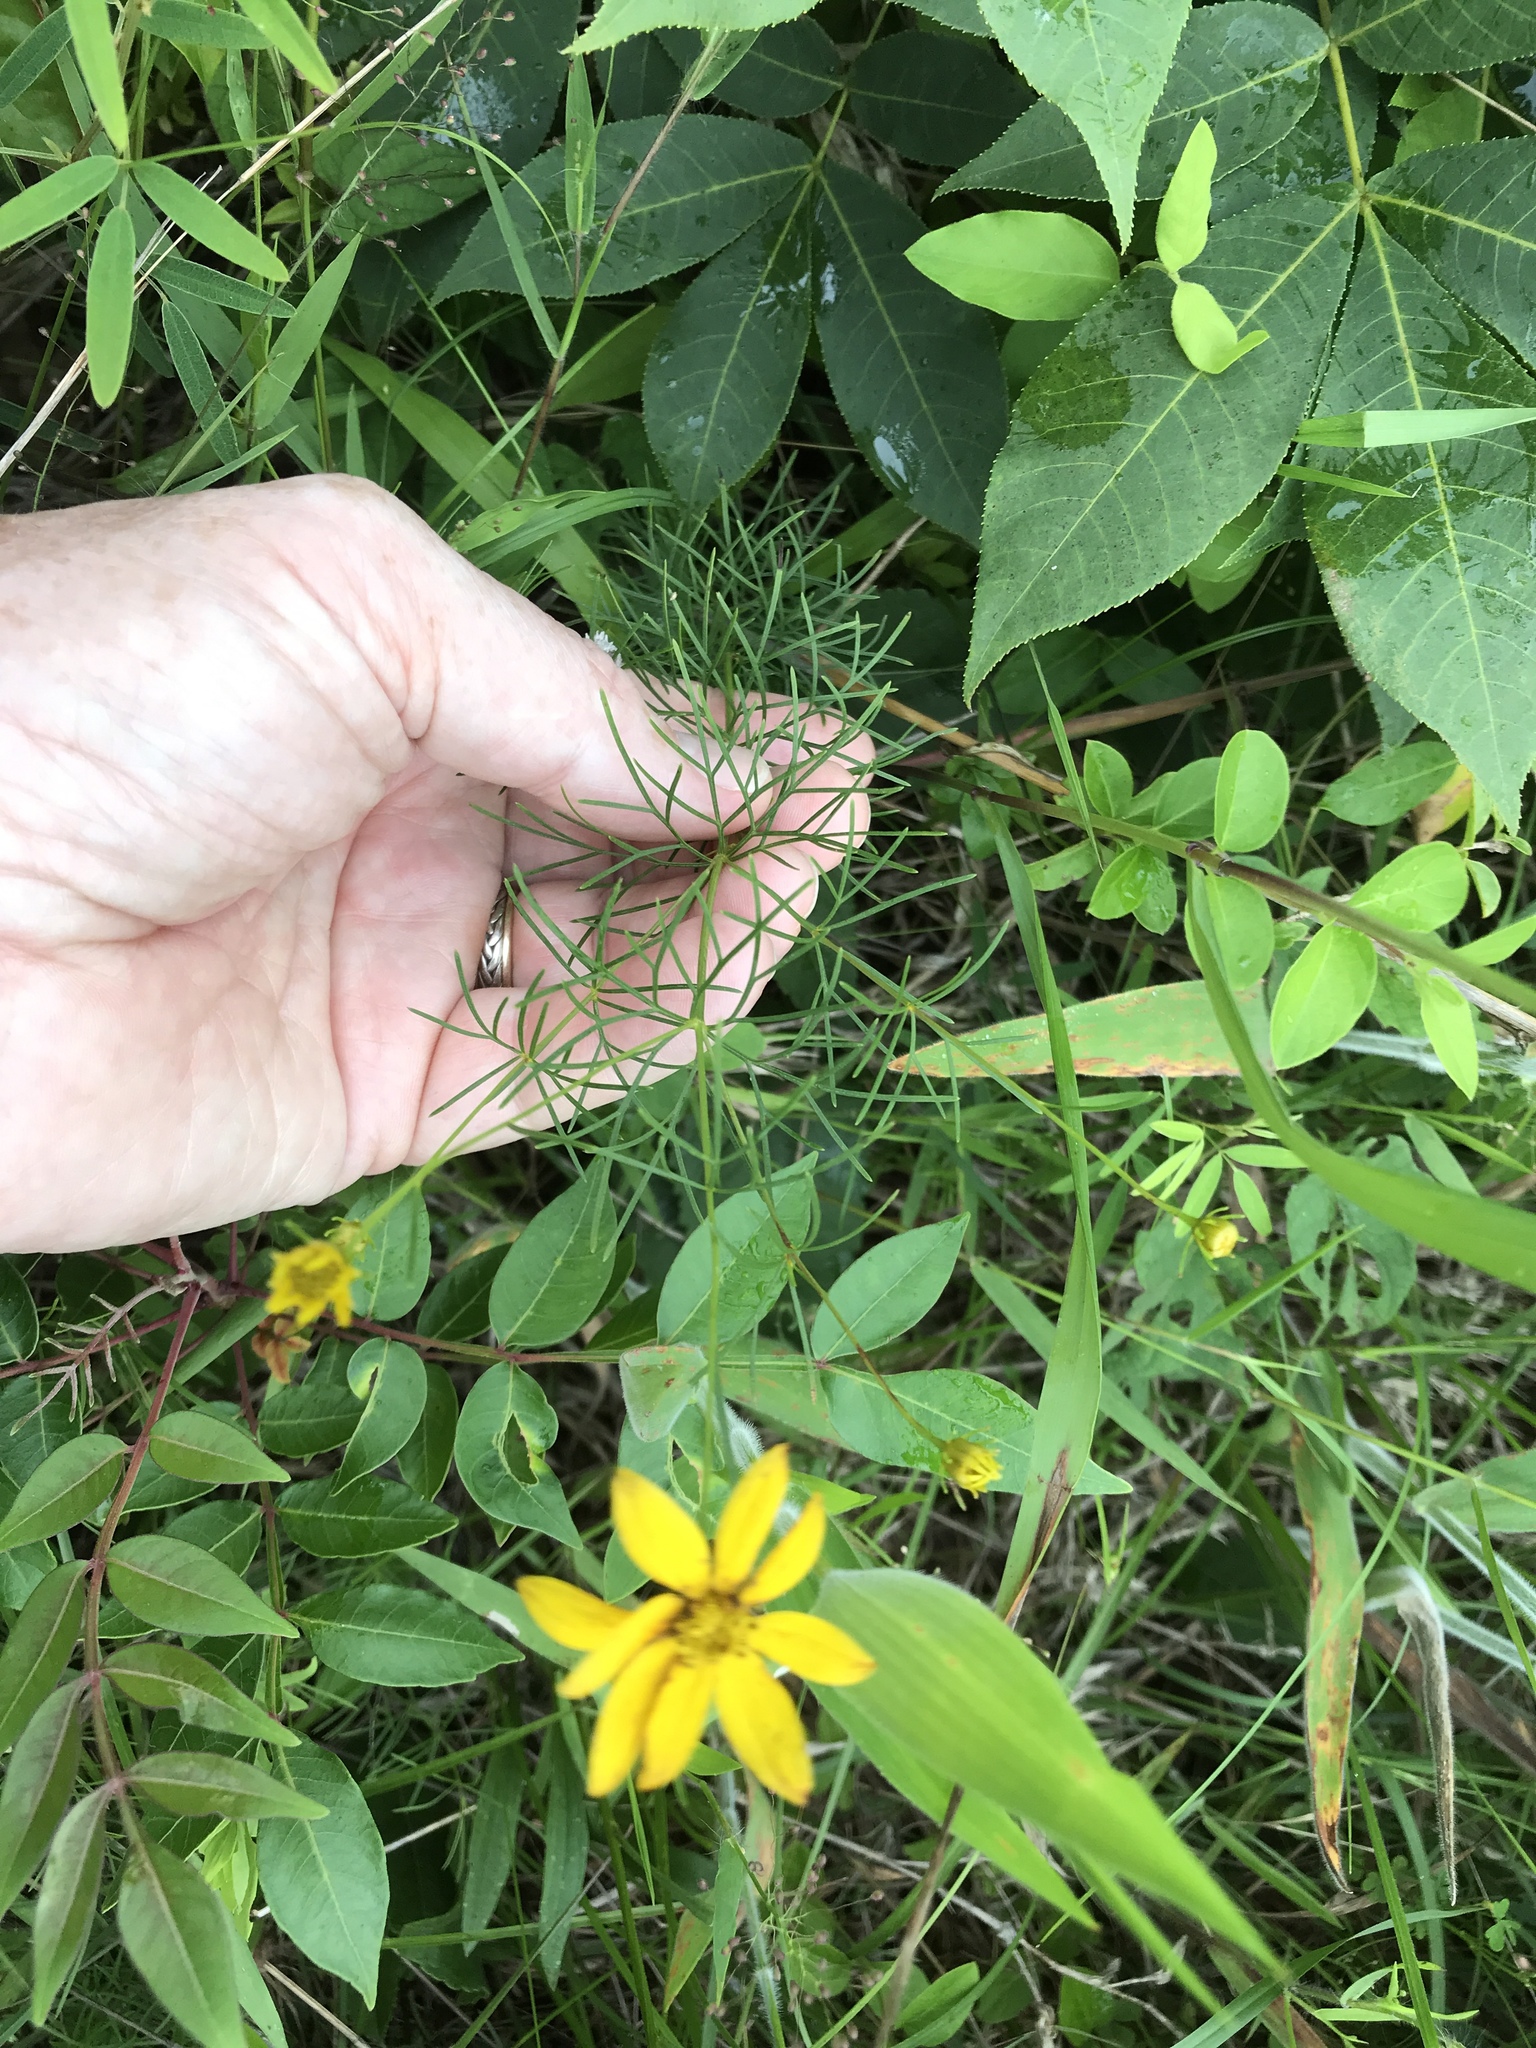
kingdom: Plantae
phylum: Tracheophyta
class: Magnoliopsida
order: Asterales
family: Asteraceae
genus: Coreopsis
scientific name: Coreopsis verticillata
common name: Whorled tickseed
